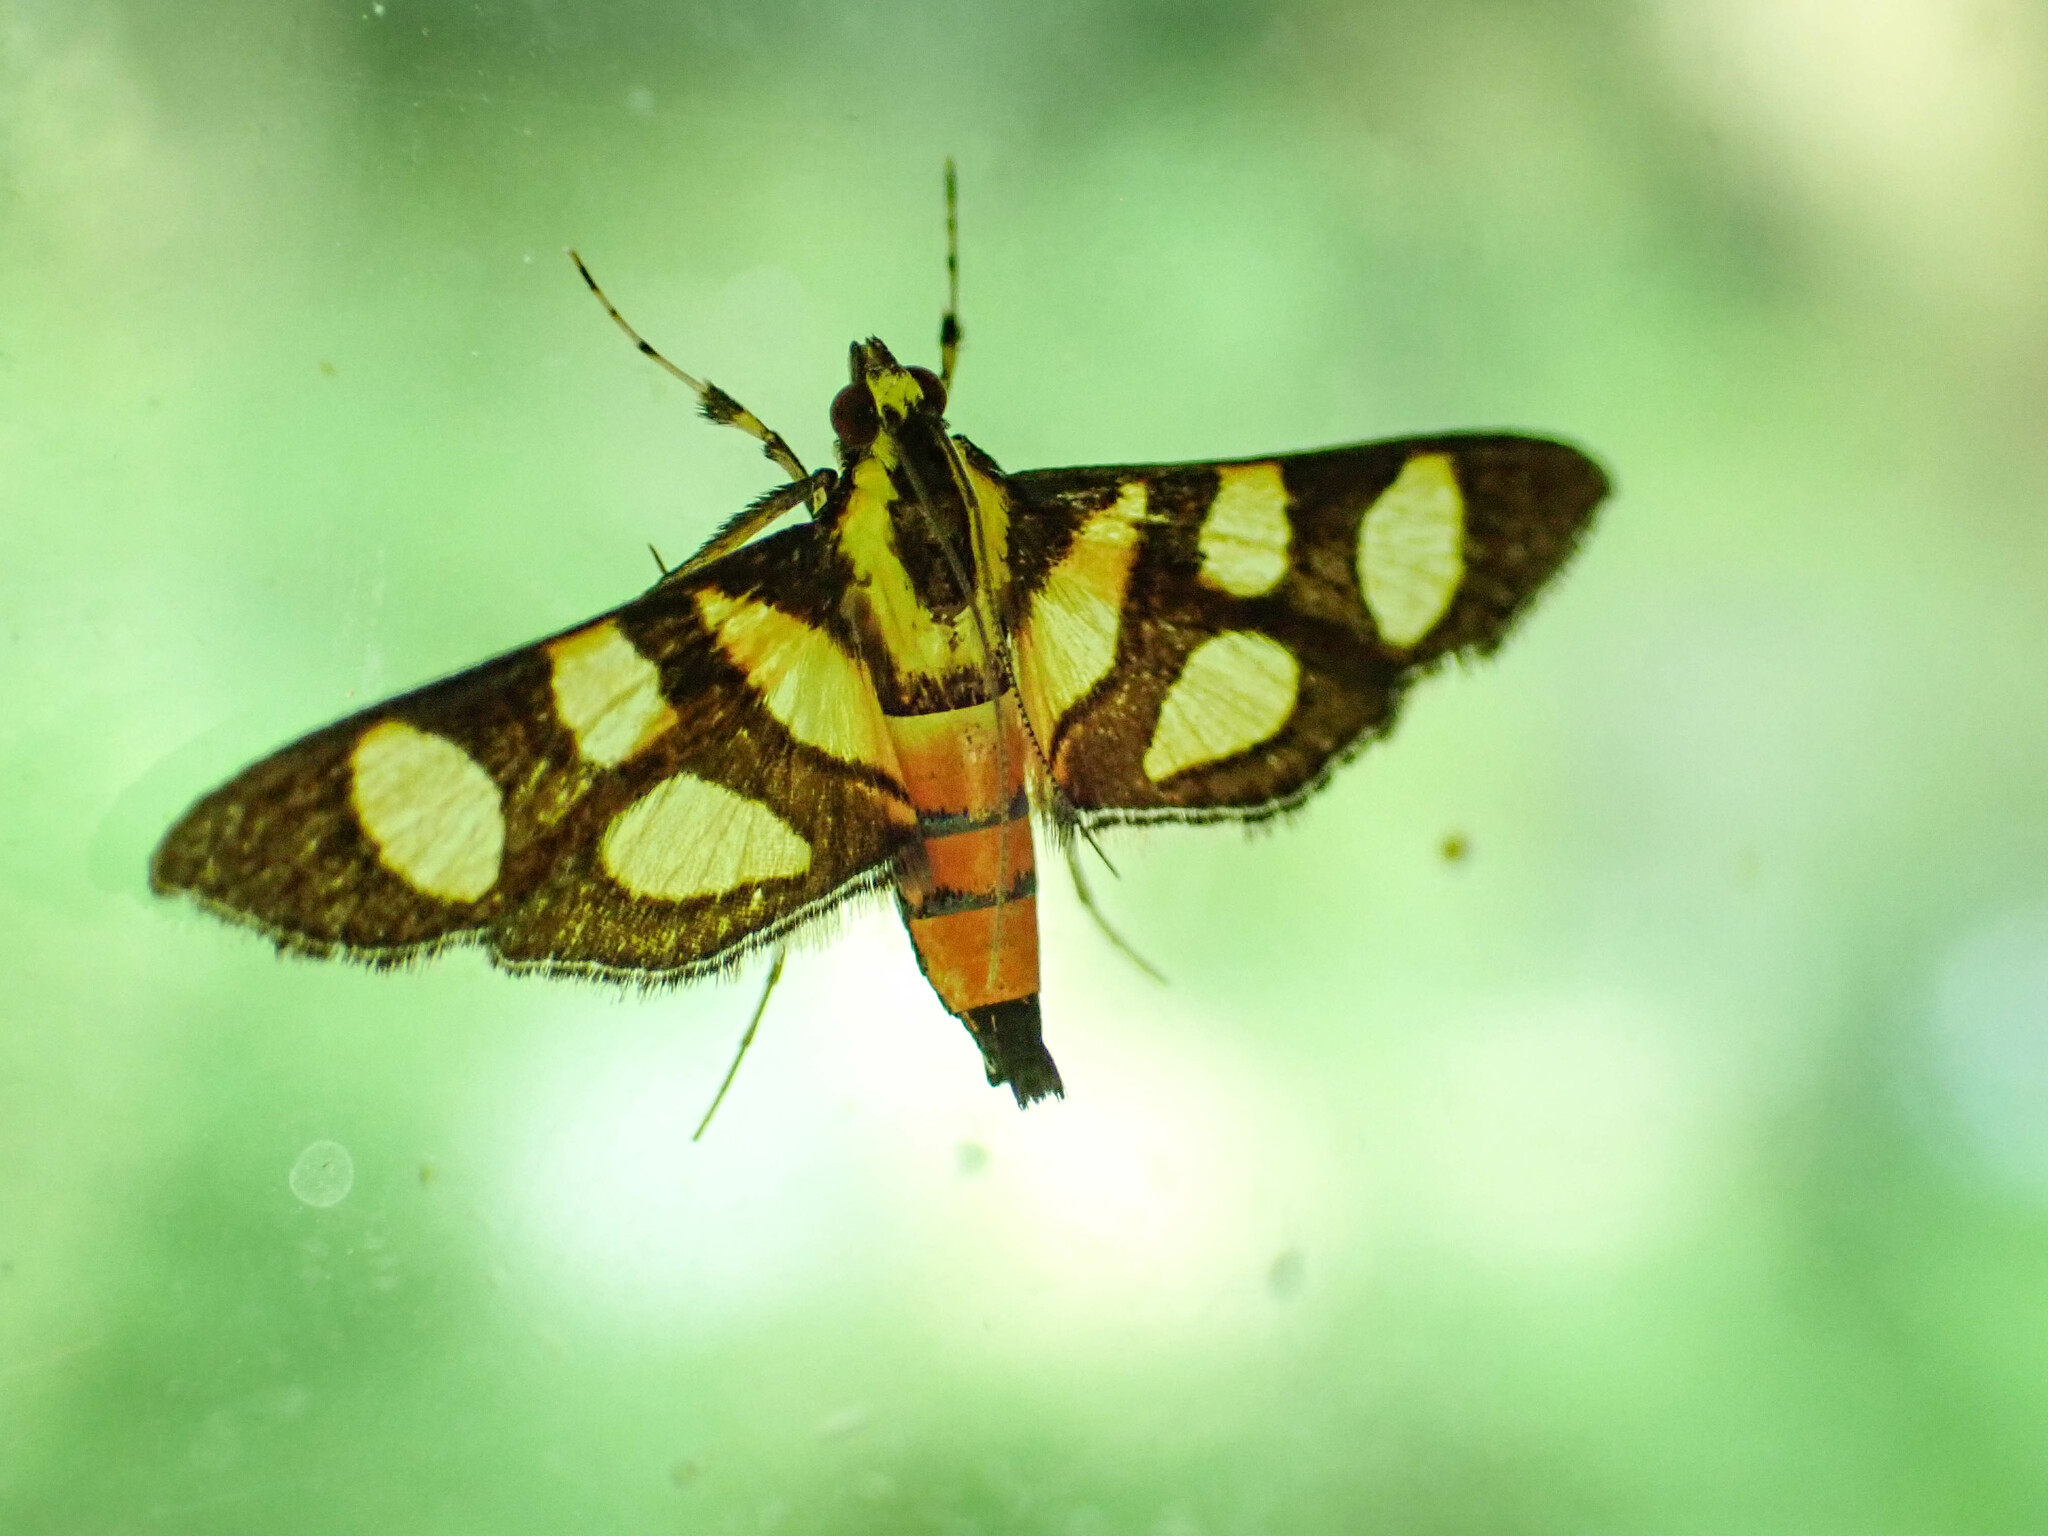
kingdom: Animalia
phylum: Arthropoda
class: Insecta
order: Lepidoptera
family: Crambidae
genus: Syngamia
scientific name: Syngamia florella
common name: Orange-spotted flower moth
